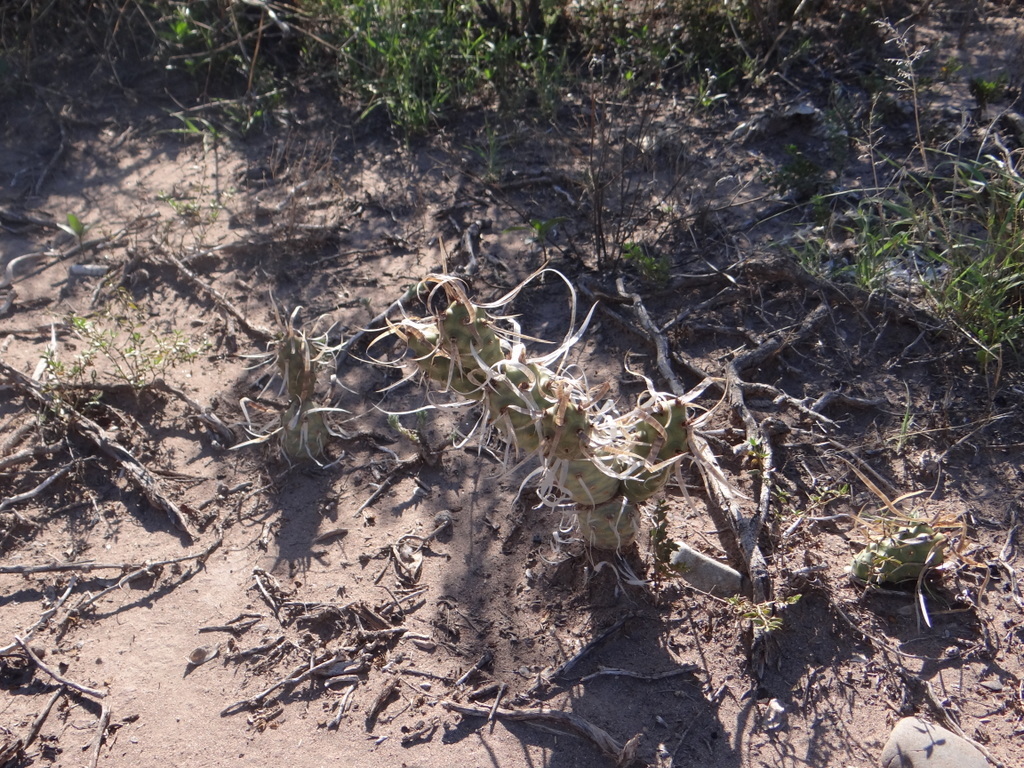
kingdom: Plantae
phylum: Tracheophyta
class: Magnoliopsida
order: Caryophyllales
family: Cactaceae
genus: Tephrocactus
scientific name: Tephrocactus articulatus
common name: Paper cactus
